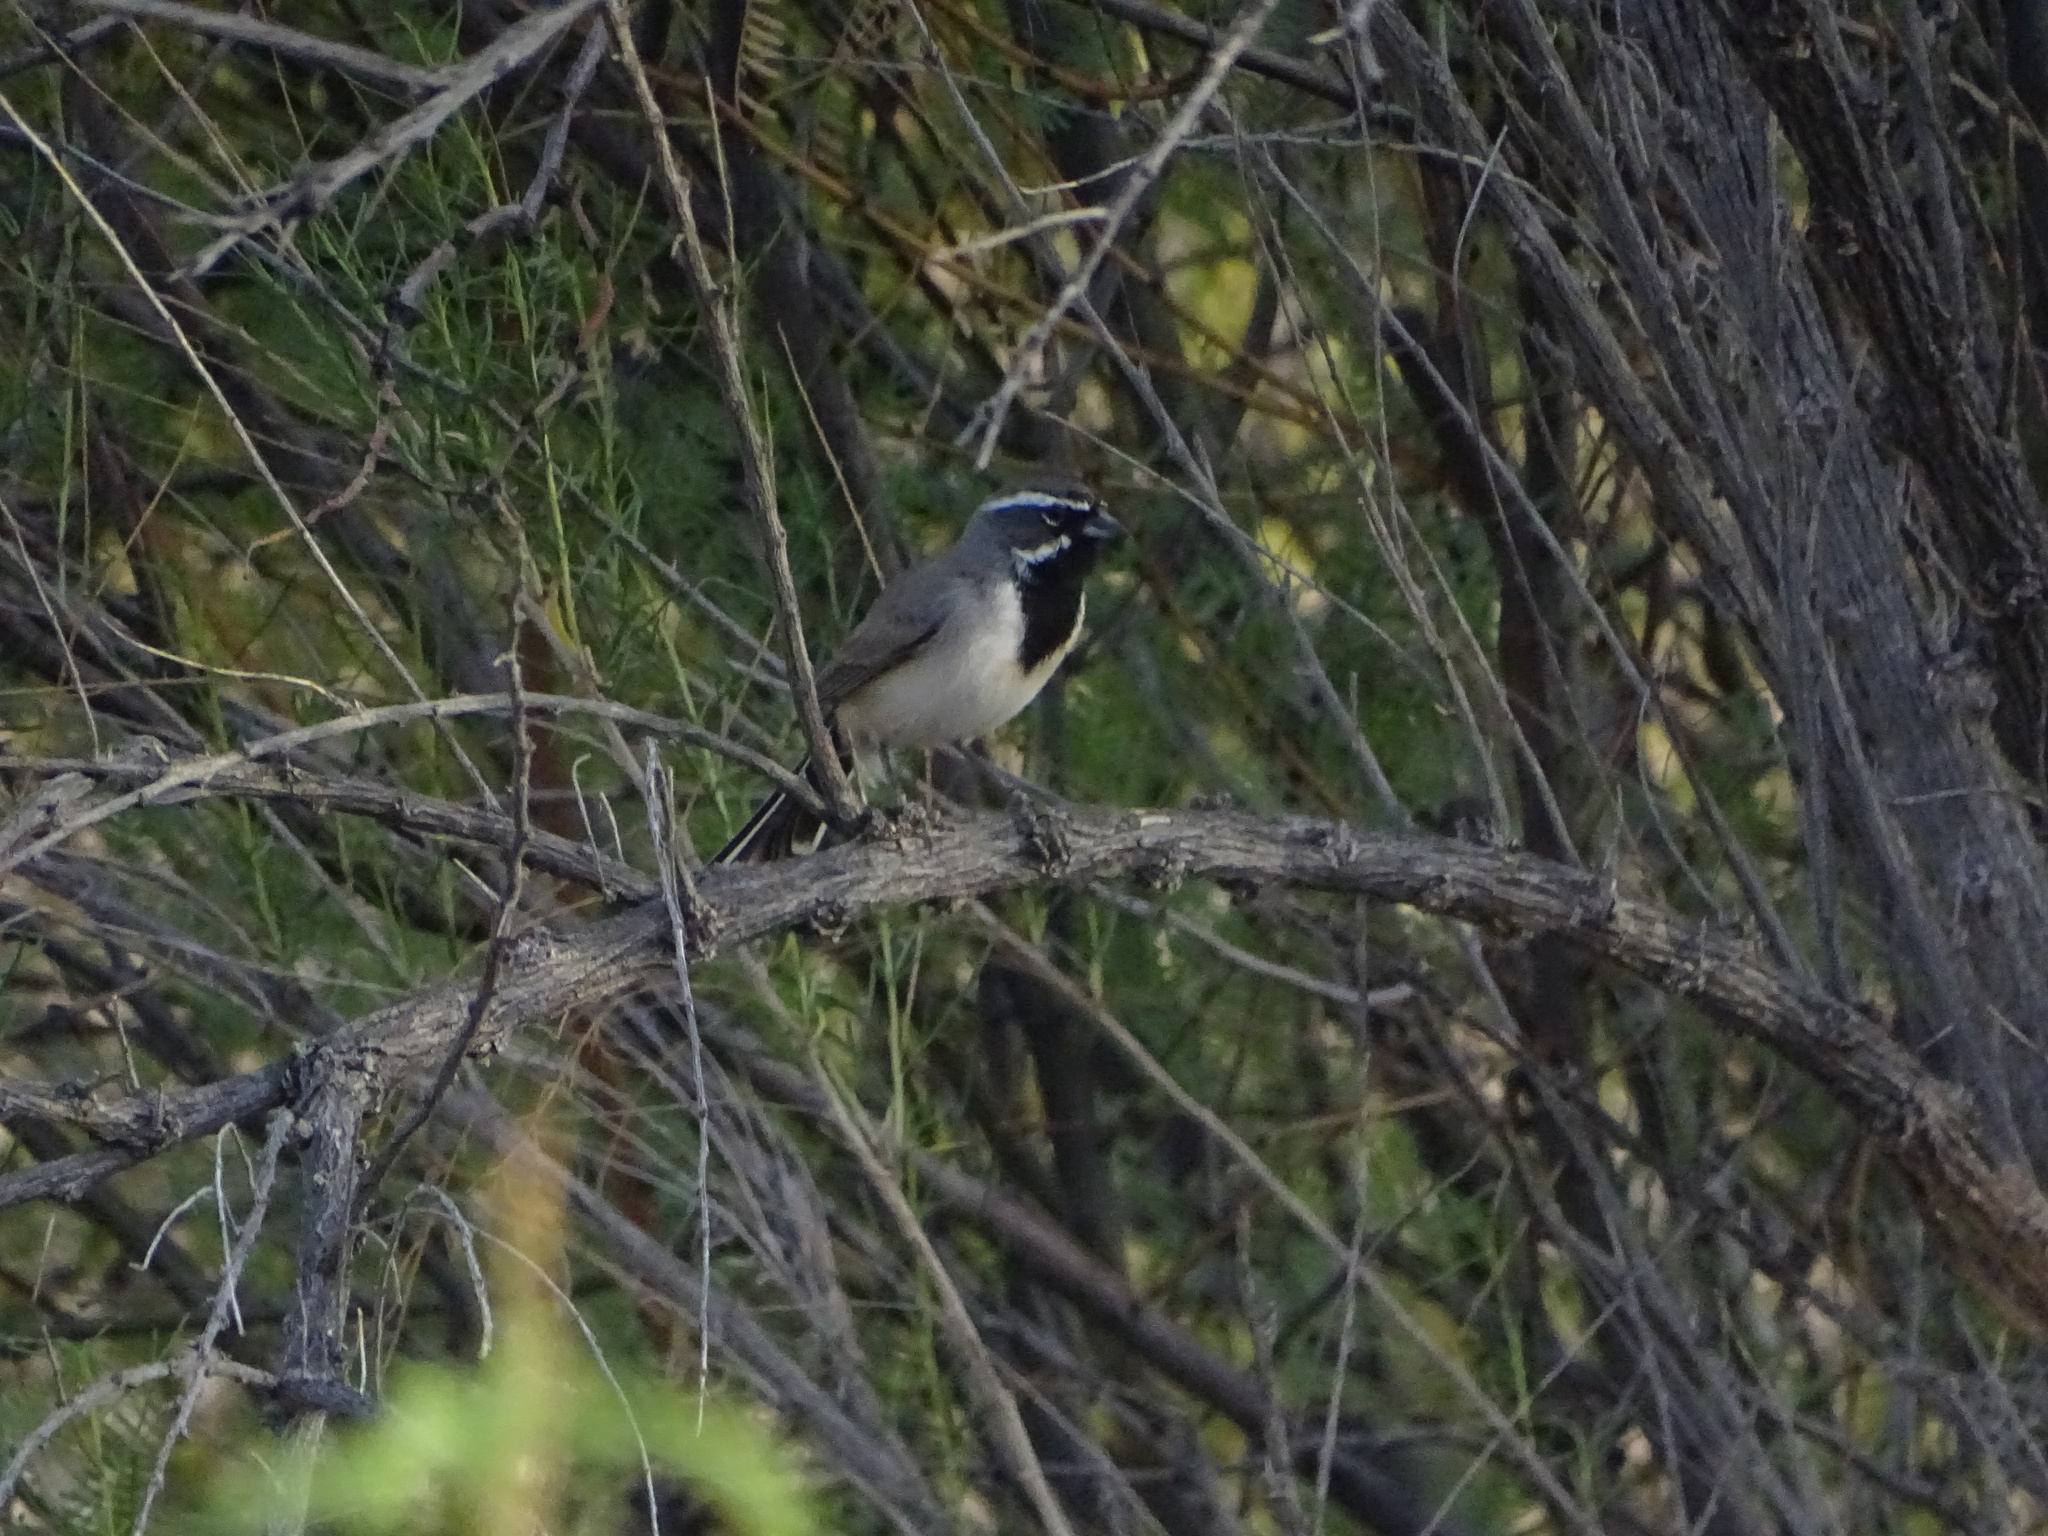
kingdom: Animalia
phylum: Chordata
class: Aves
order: Passeriformes
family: Passerellidae
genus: Amphispiza
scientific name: Amphispiza bilineata
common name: Black-throated sparrow
